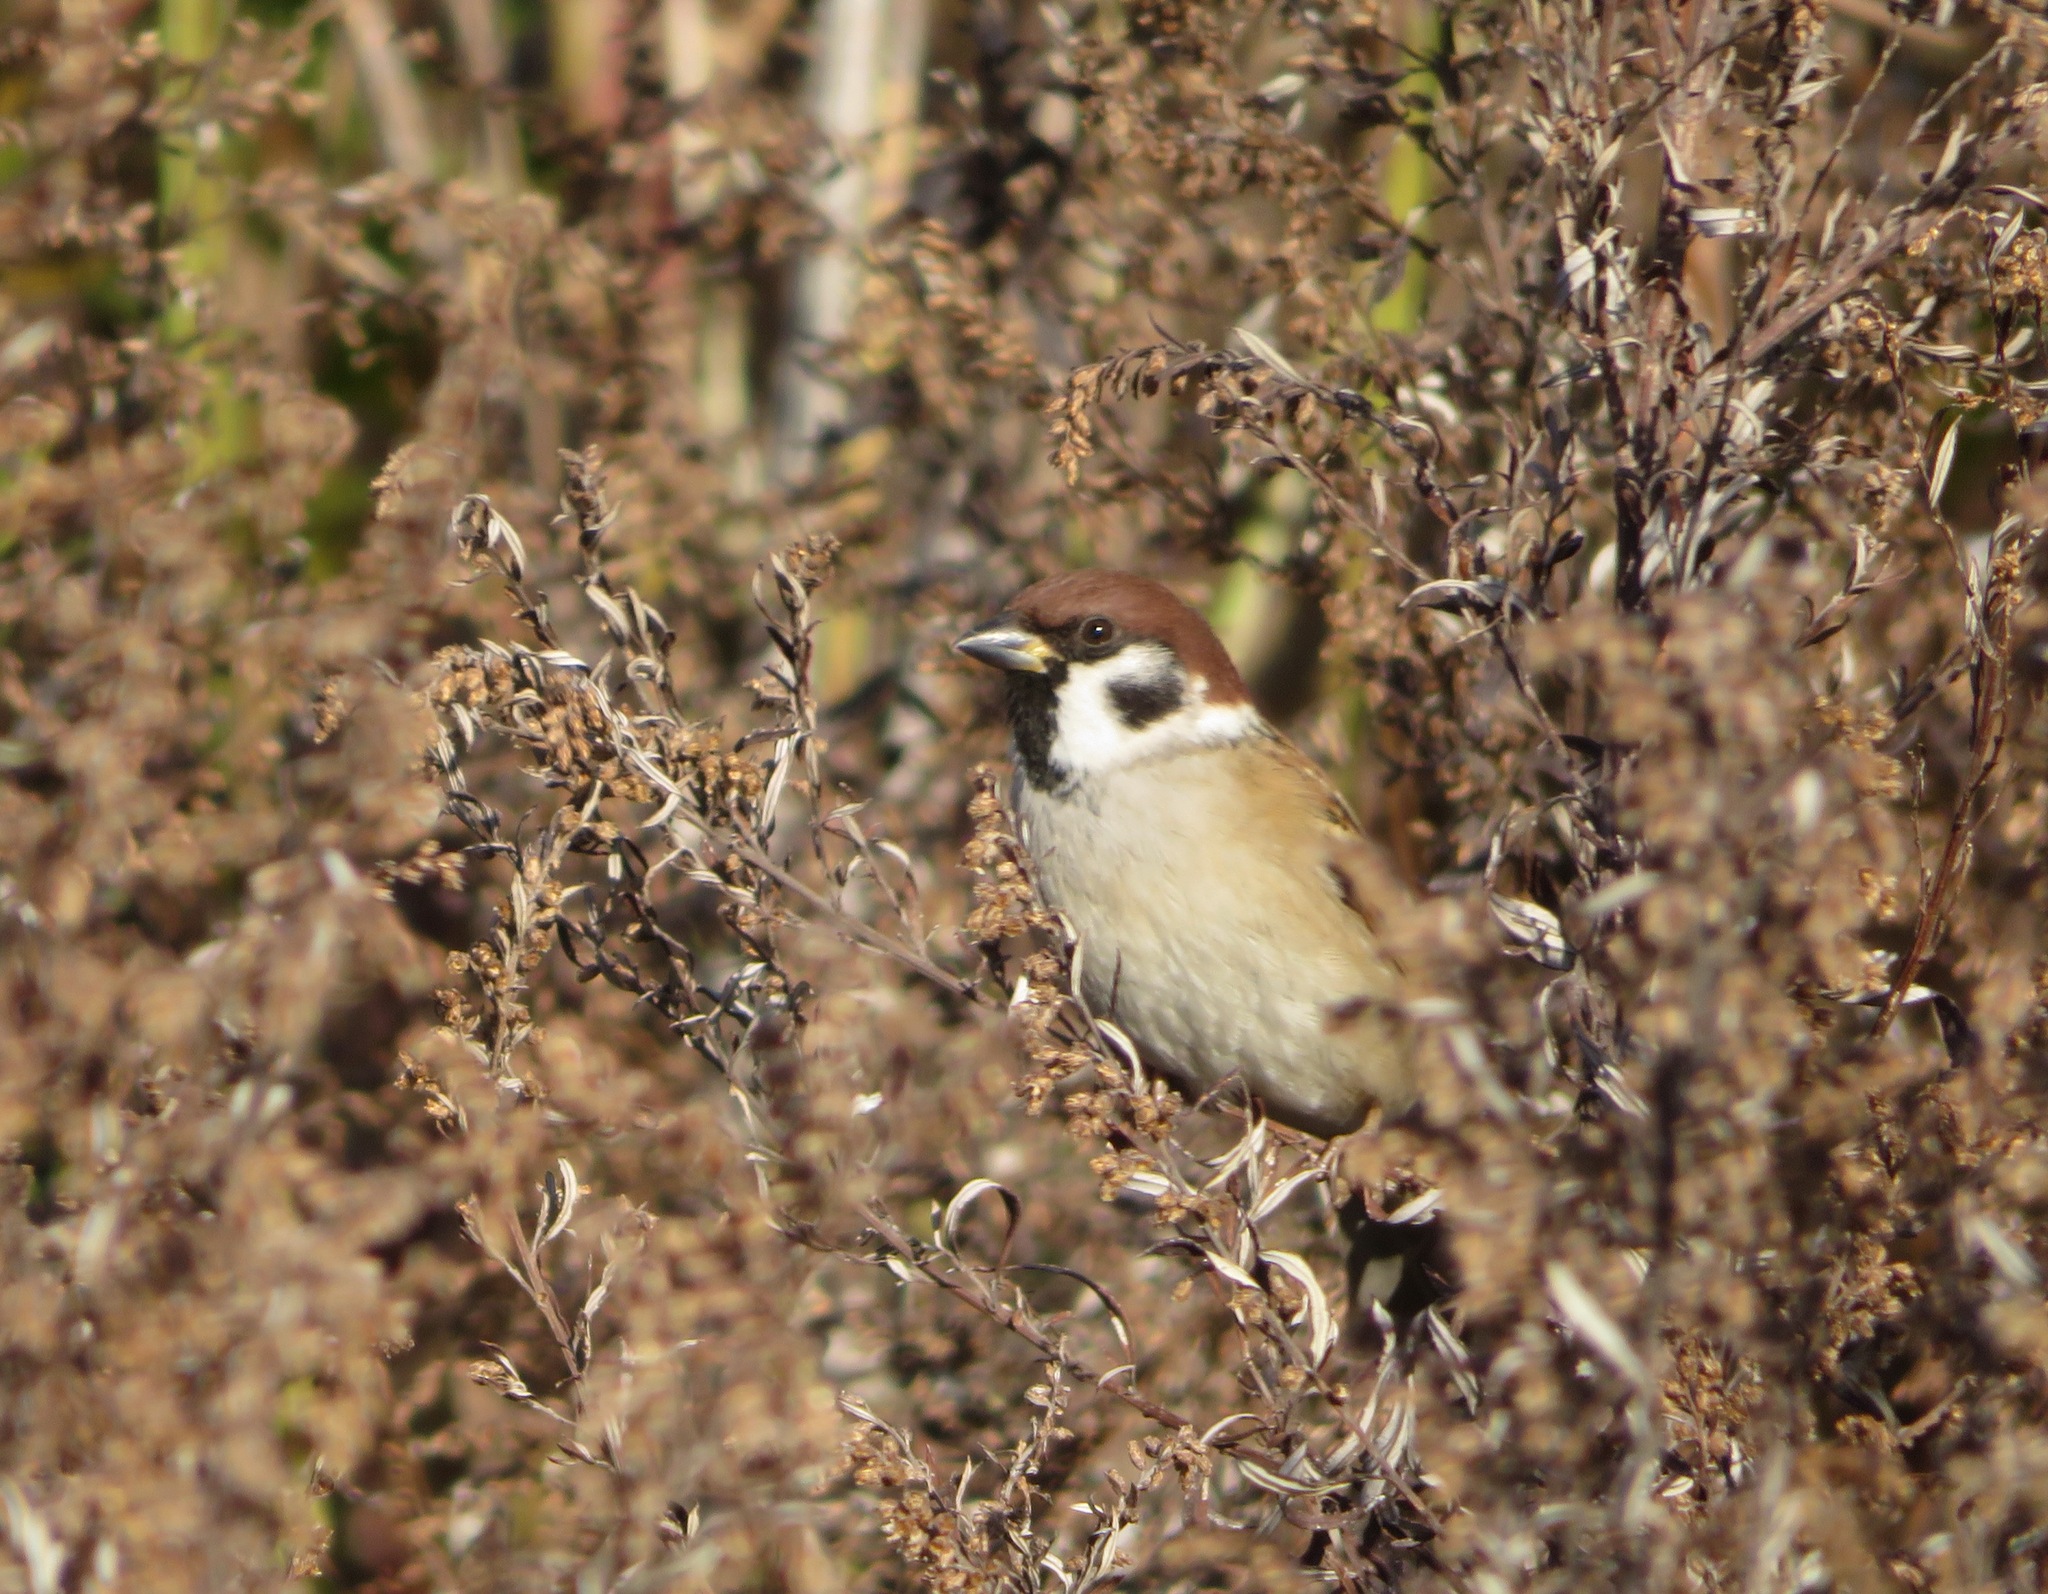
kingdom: Animalia
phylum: Chordata
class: Aves
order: Passeriformes
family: Passeridae
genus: Passer
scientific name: Passer montanus
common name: Eurasian tree sparrow
